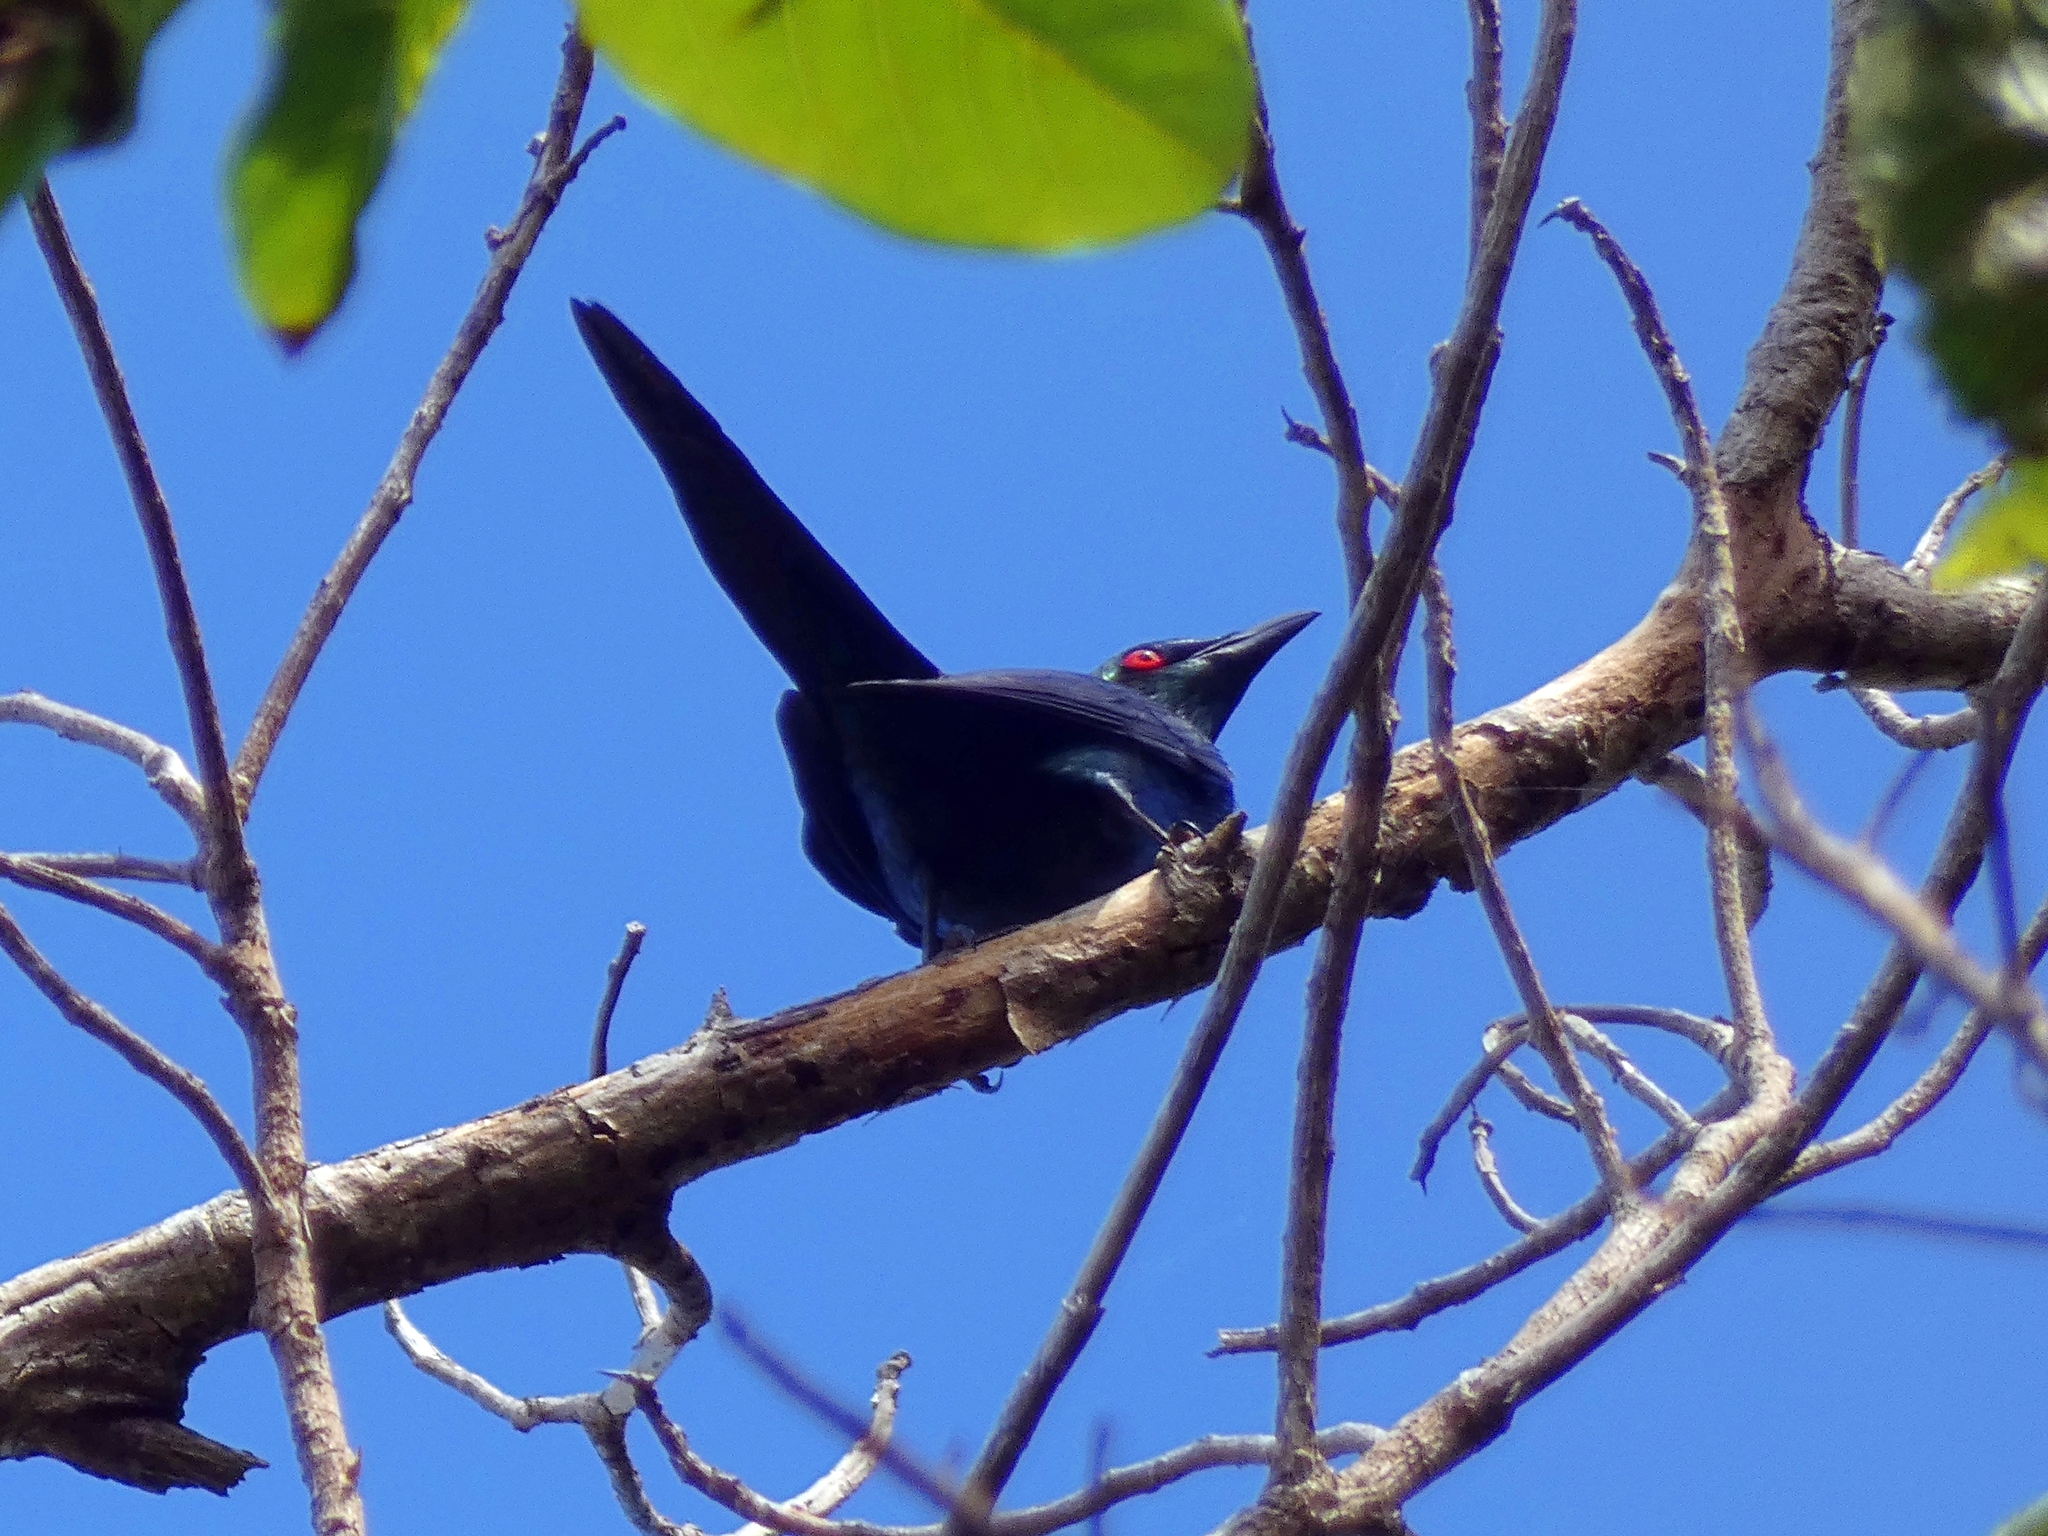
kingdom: Animalia
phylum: Chordata
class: Aves
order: Passeriformes
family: Sturnidae
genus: Aplonis
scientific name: Aplonis metallica
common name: Metallic starling
